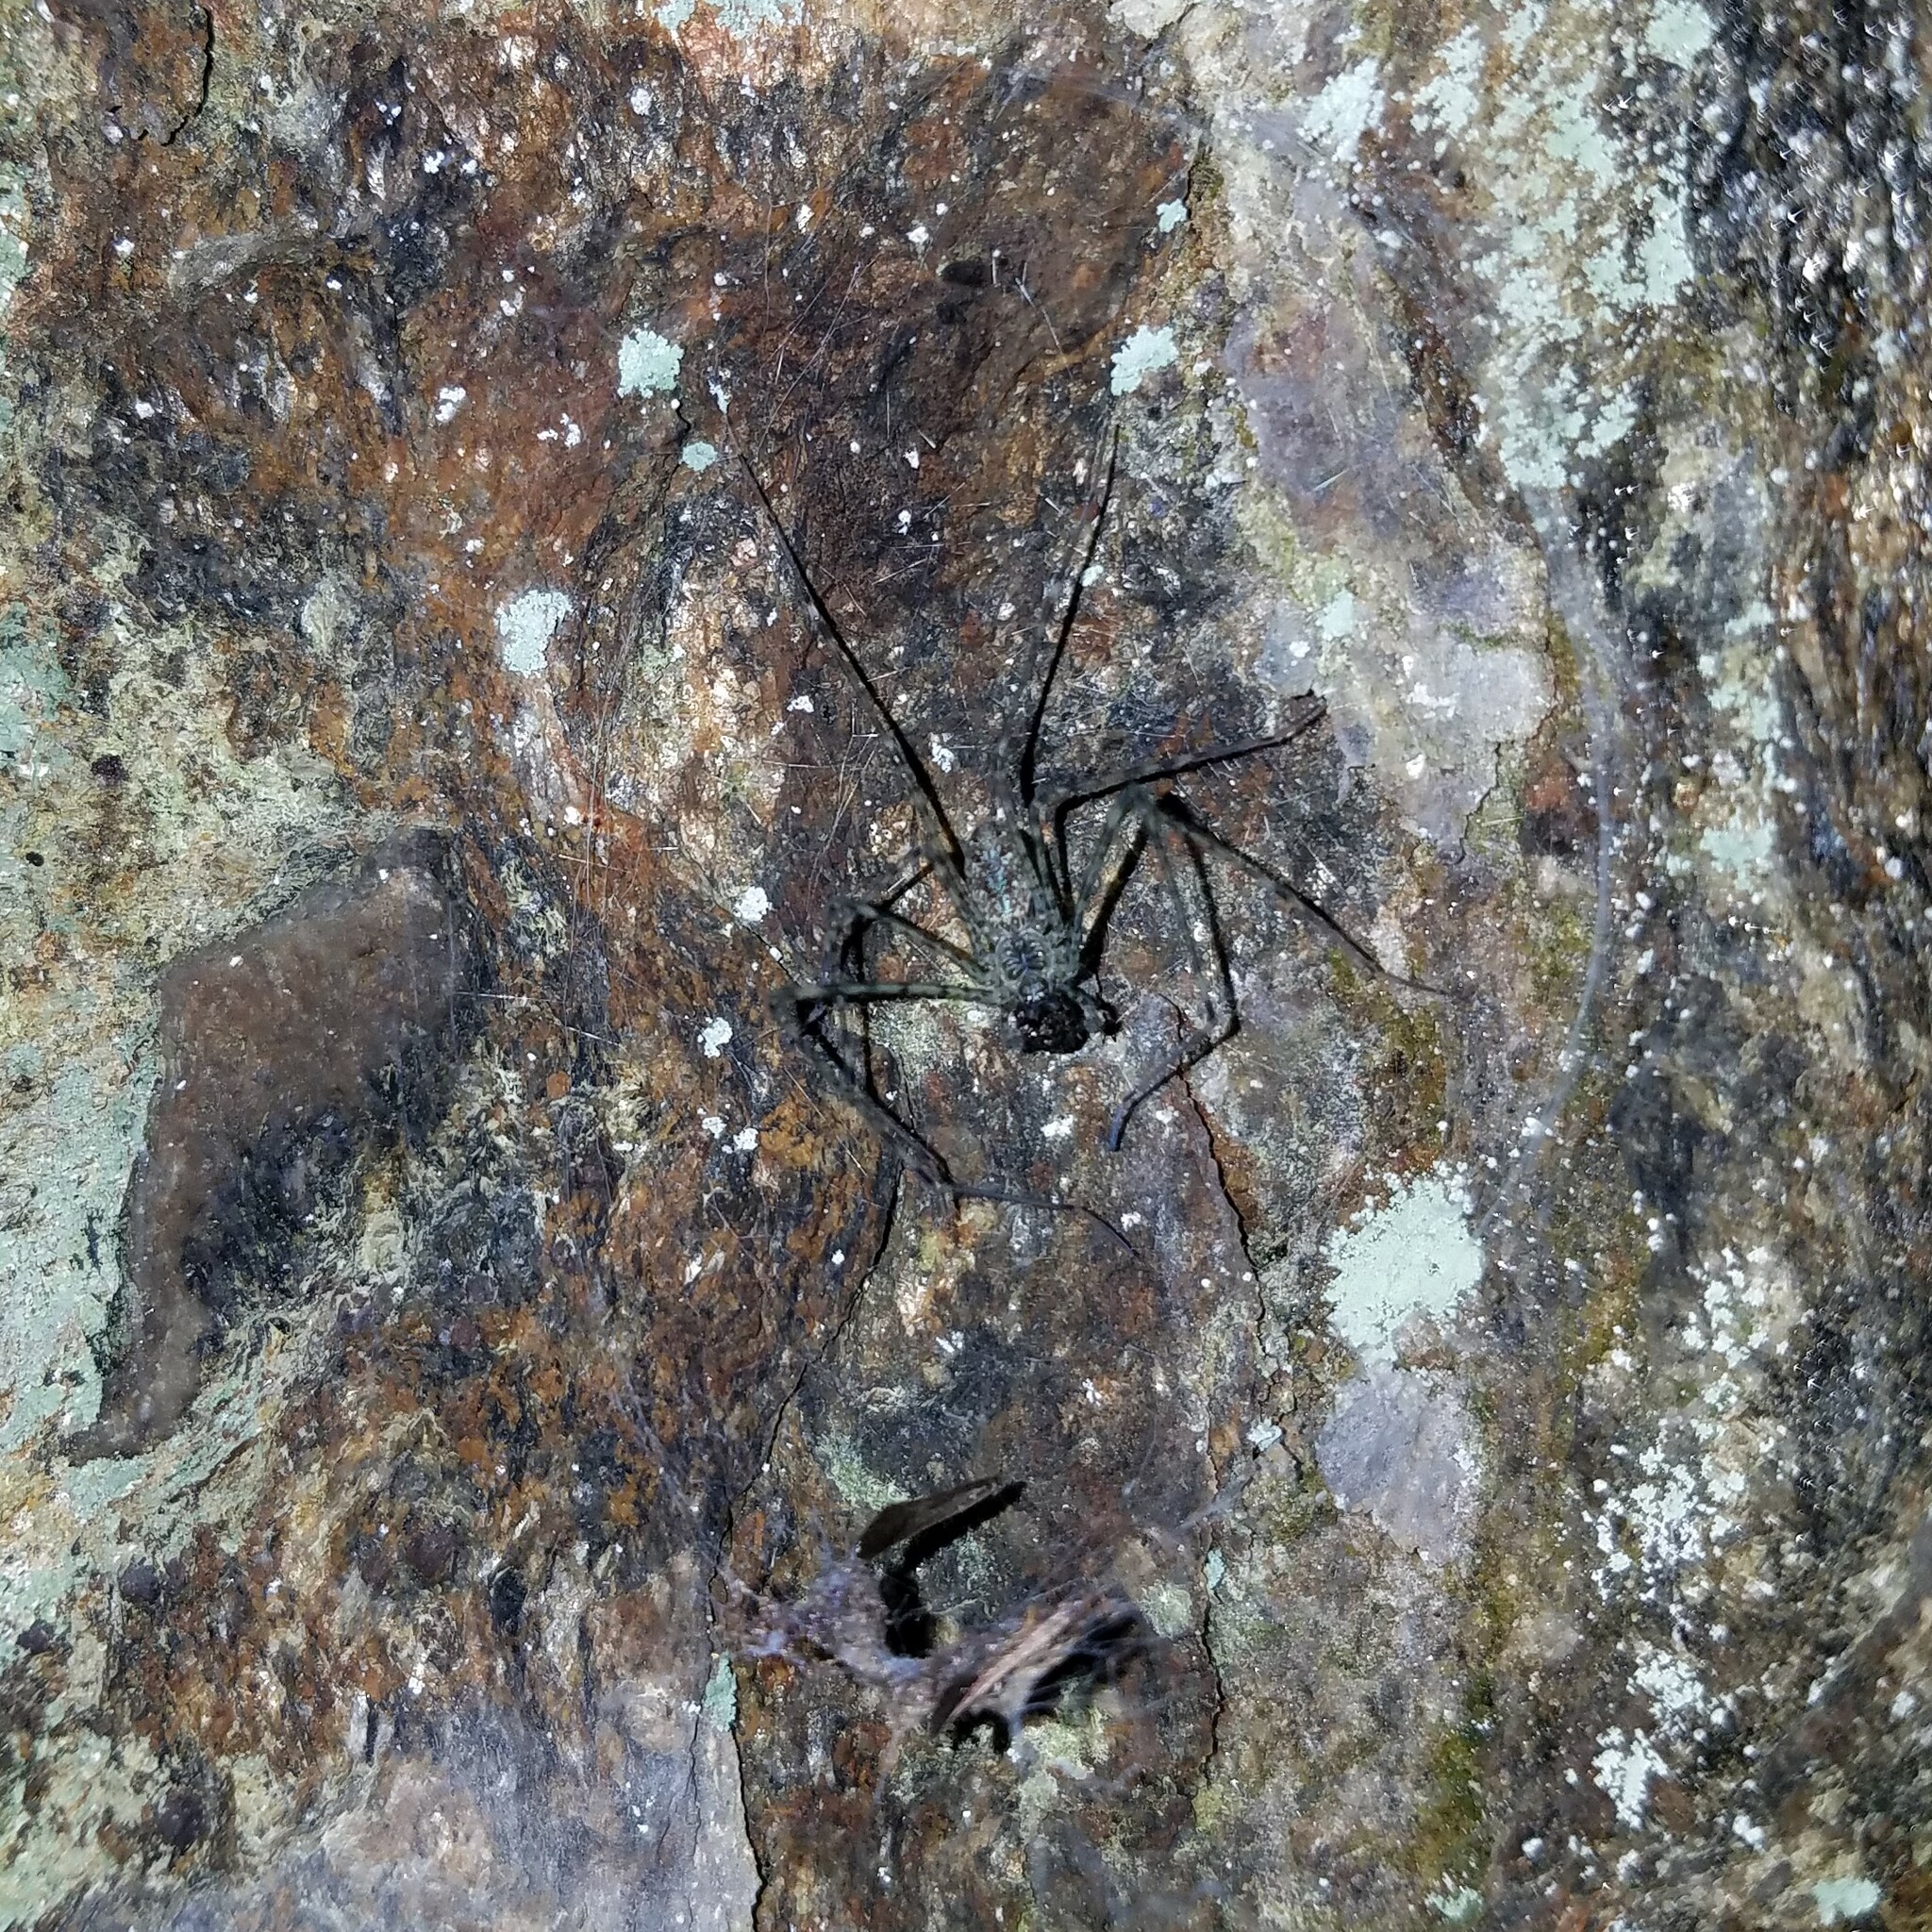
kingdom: Animalia
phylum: Arthropoda
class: Arachnida
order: Araneae
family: Hypochilidae
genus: Hypochilus
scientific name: Hypochilus pococki
